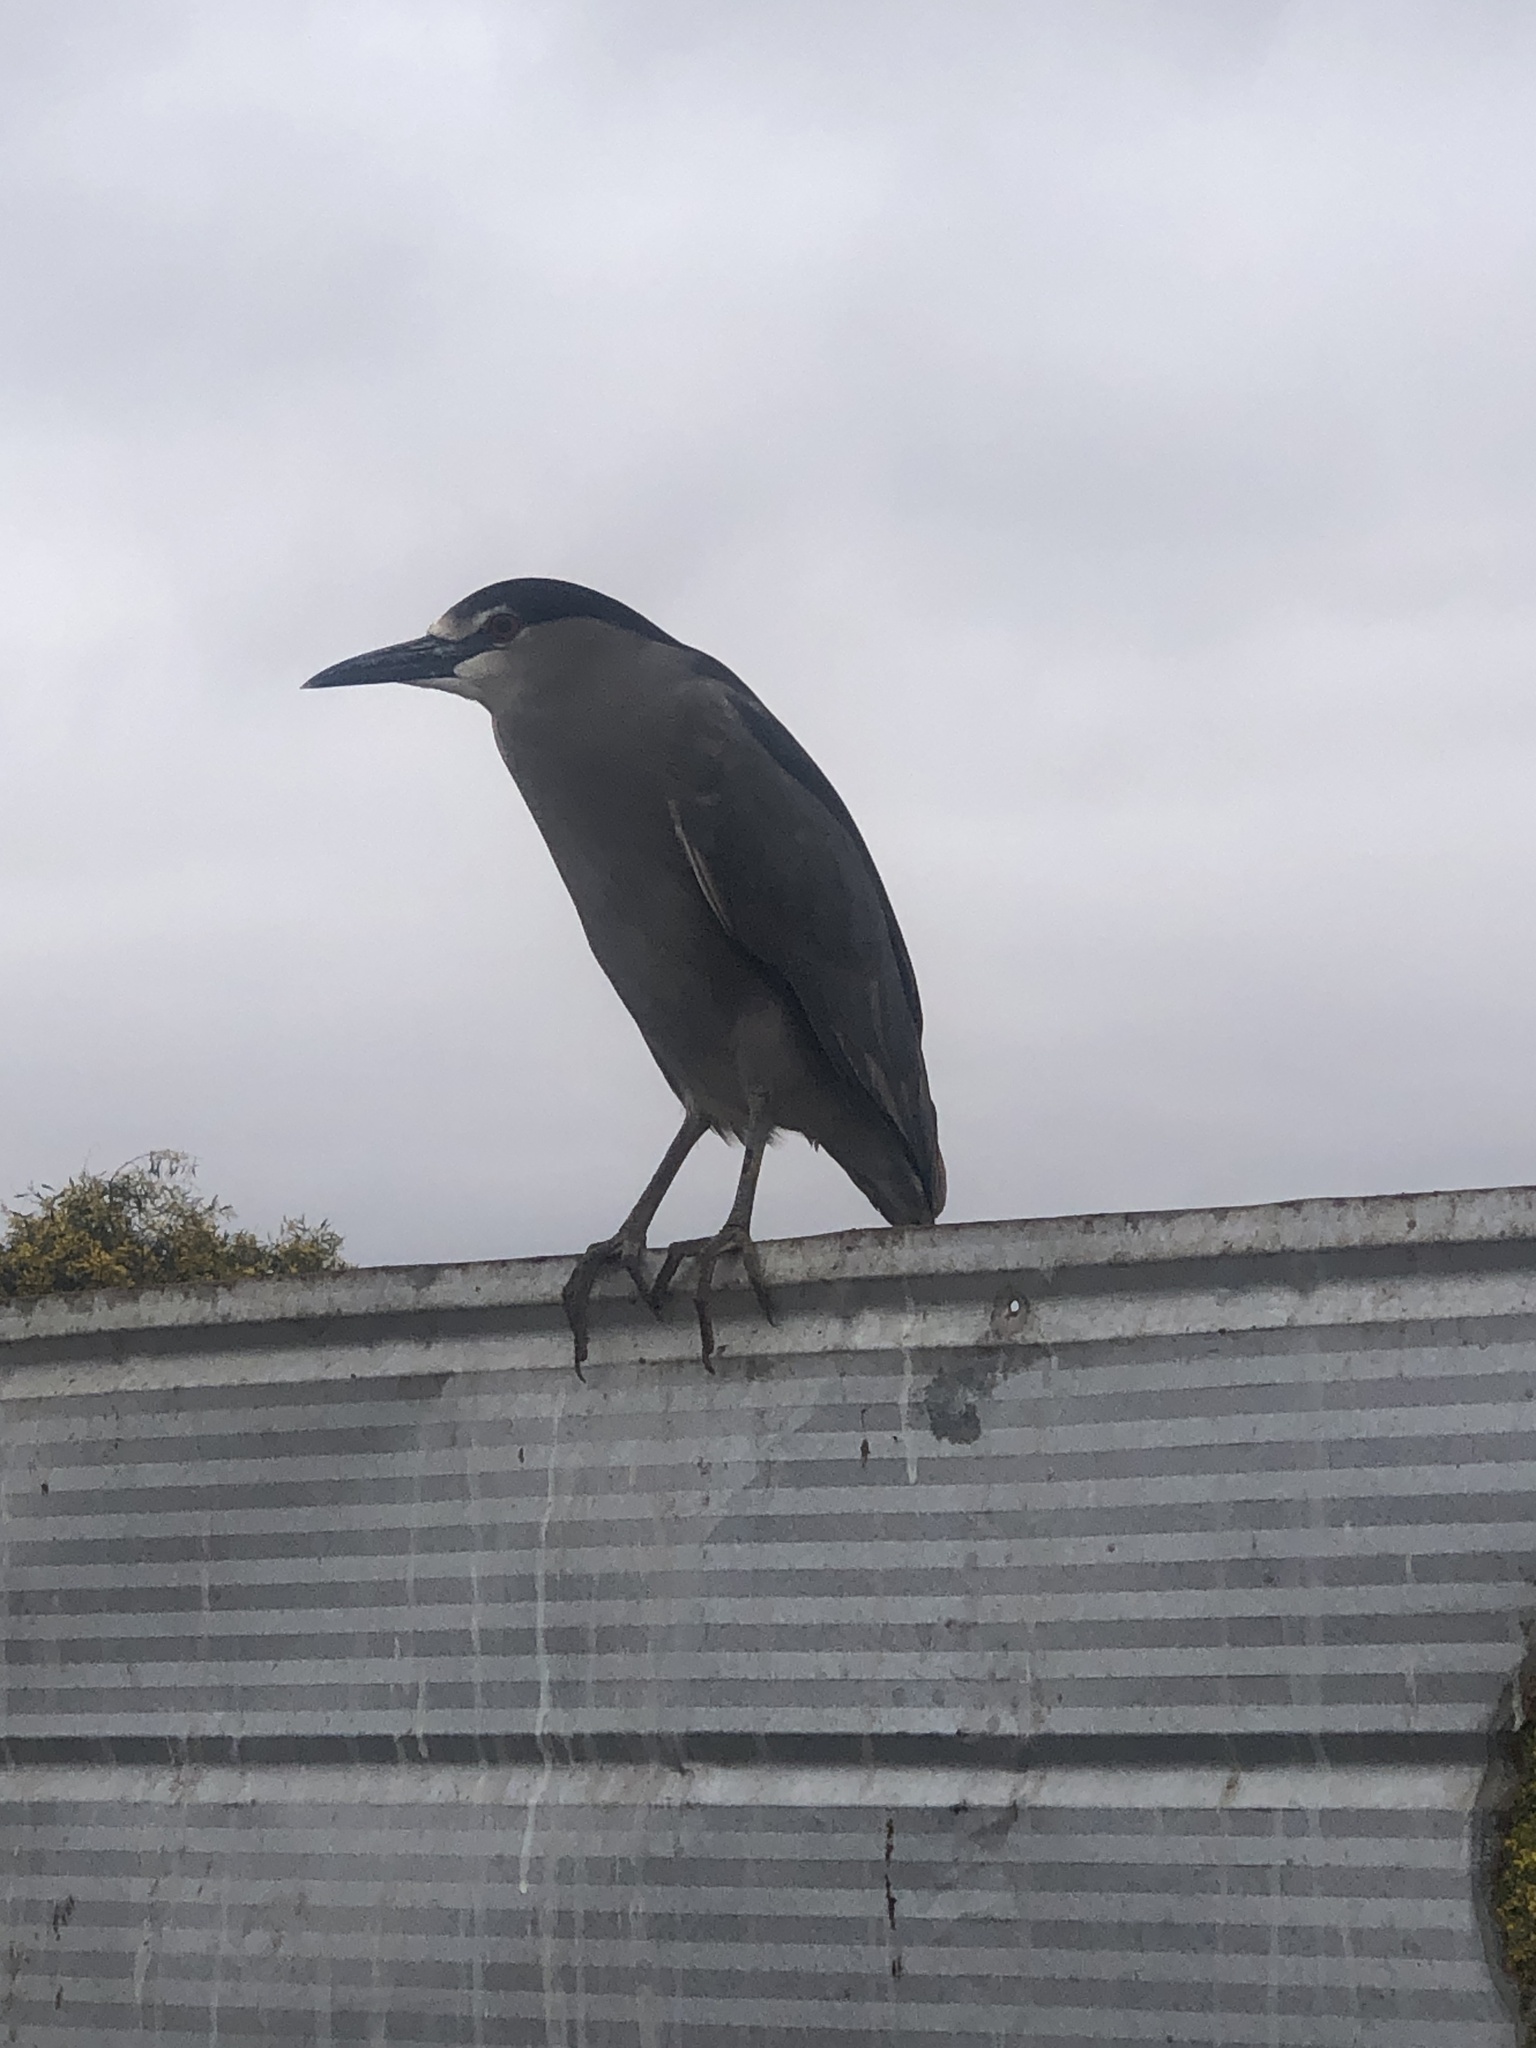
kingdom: Animalia
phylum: Chordata
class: Aves
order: Pelecaniformes
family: Ardeidae
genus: Nycticorax
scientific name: Nycticorax nycticorax
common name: Black-crowned night heron
